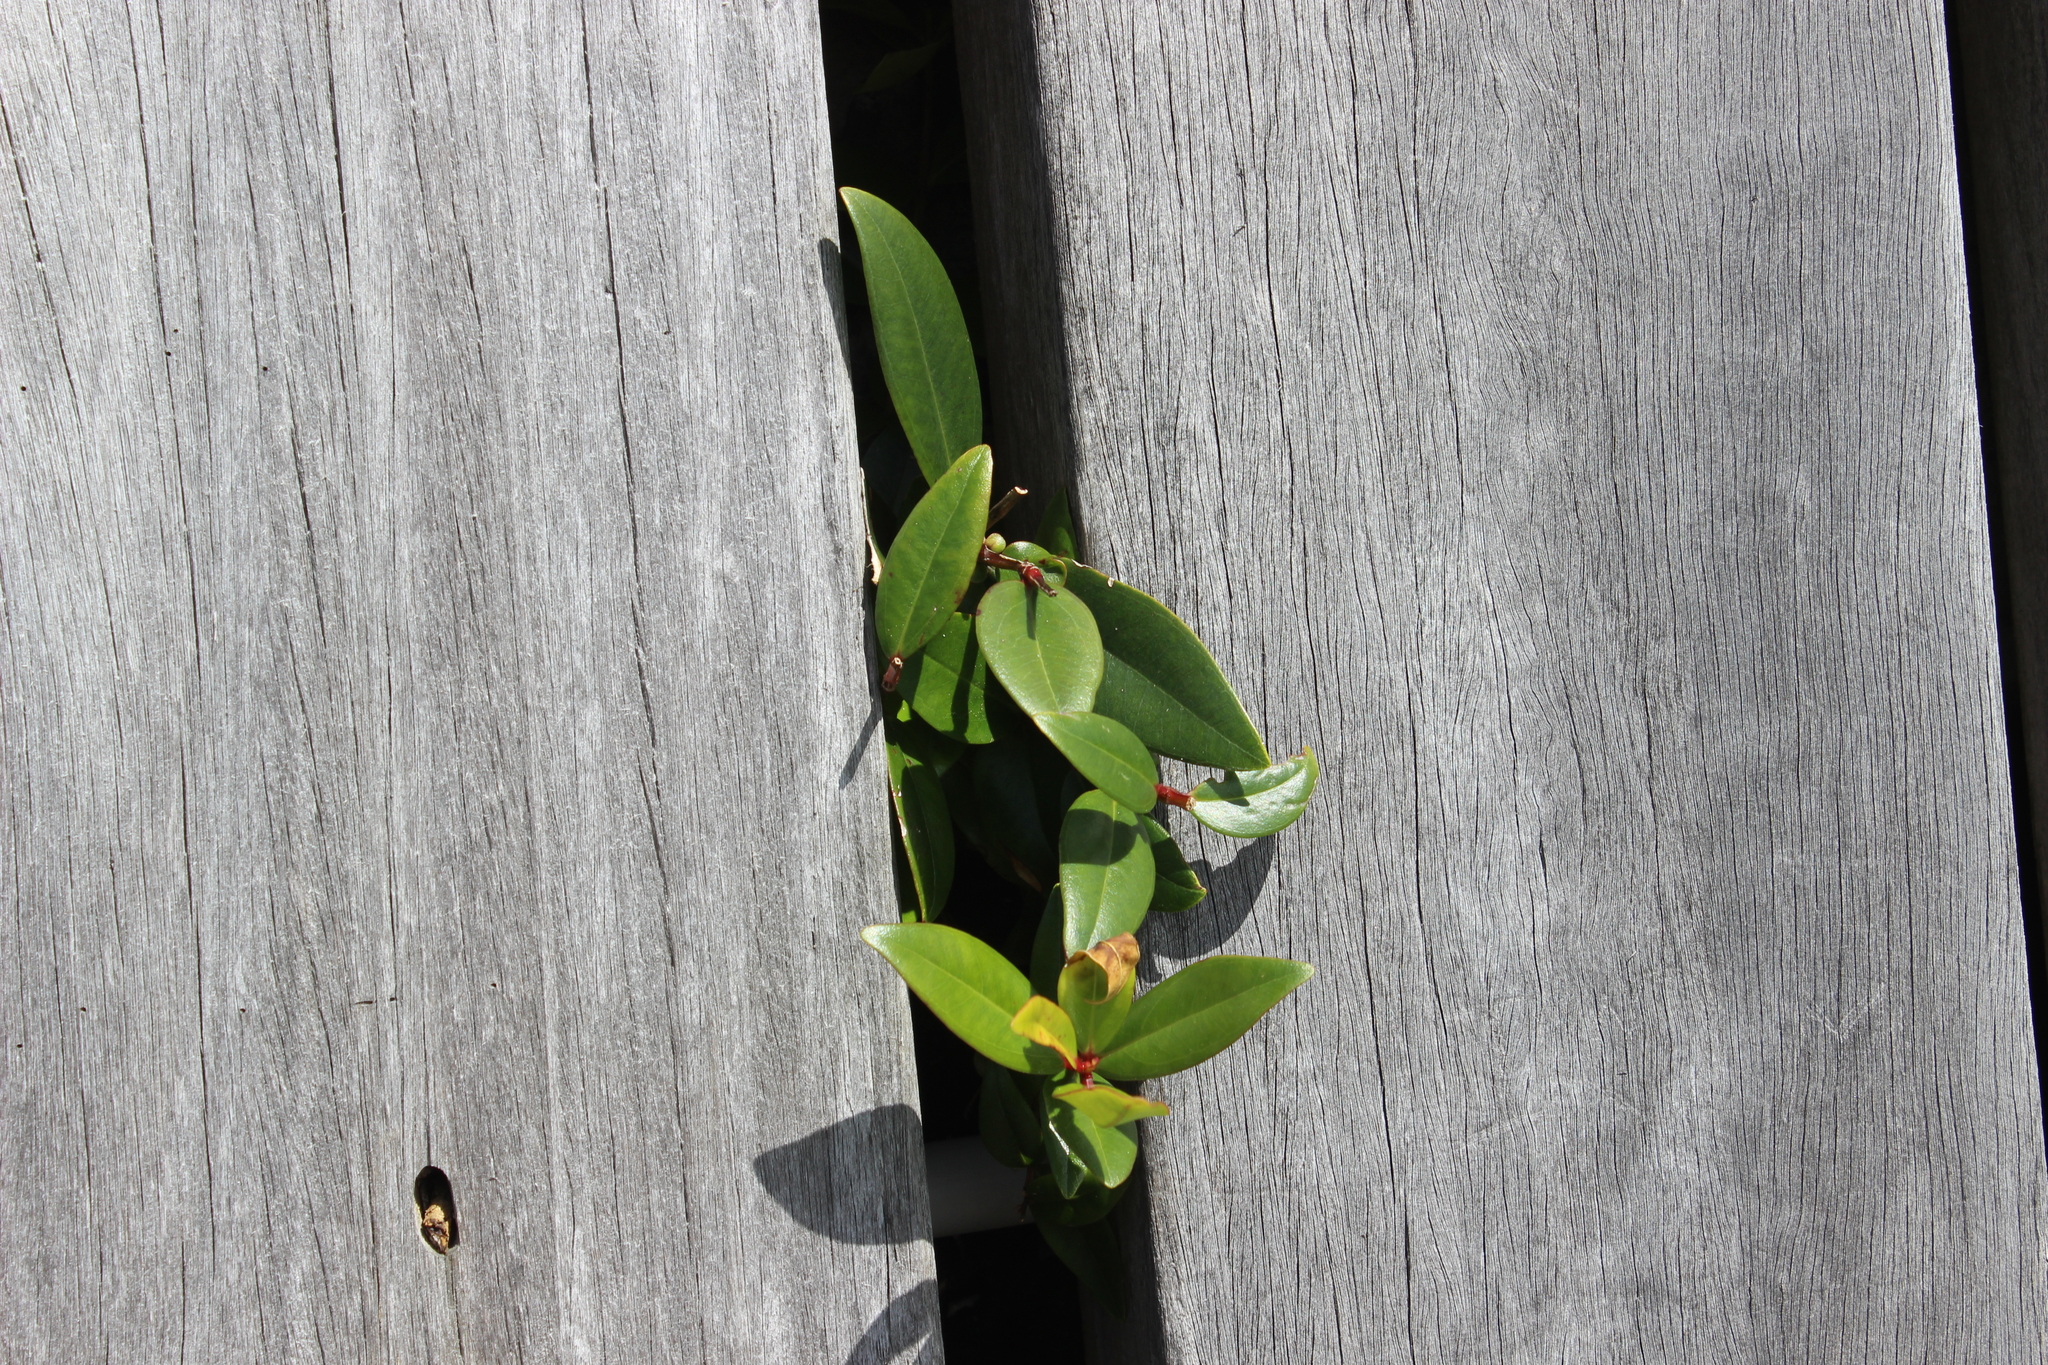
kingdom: Plantae
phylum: Tracheophyta
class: Magnoliopsida
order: Myrtales
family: Myrtaceae
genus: Metrosideros
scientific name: Metrosideros excelsa
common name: New zealand christmastree
